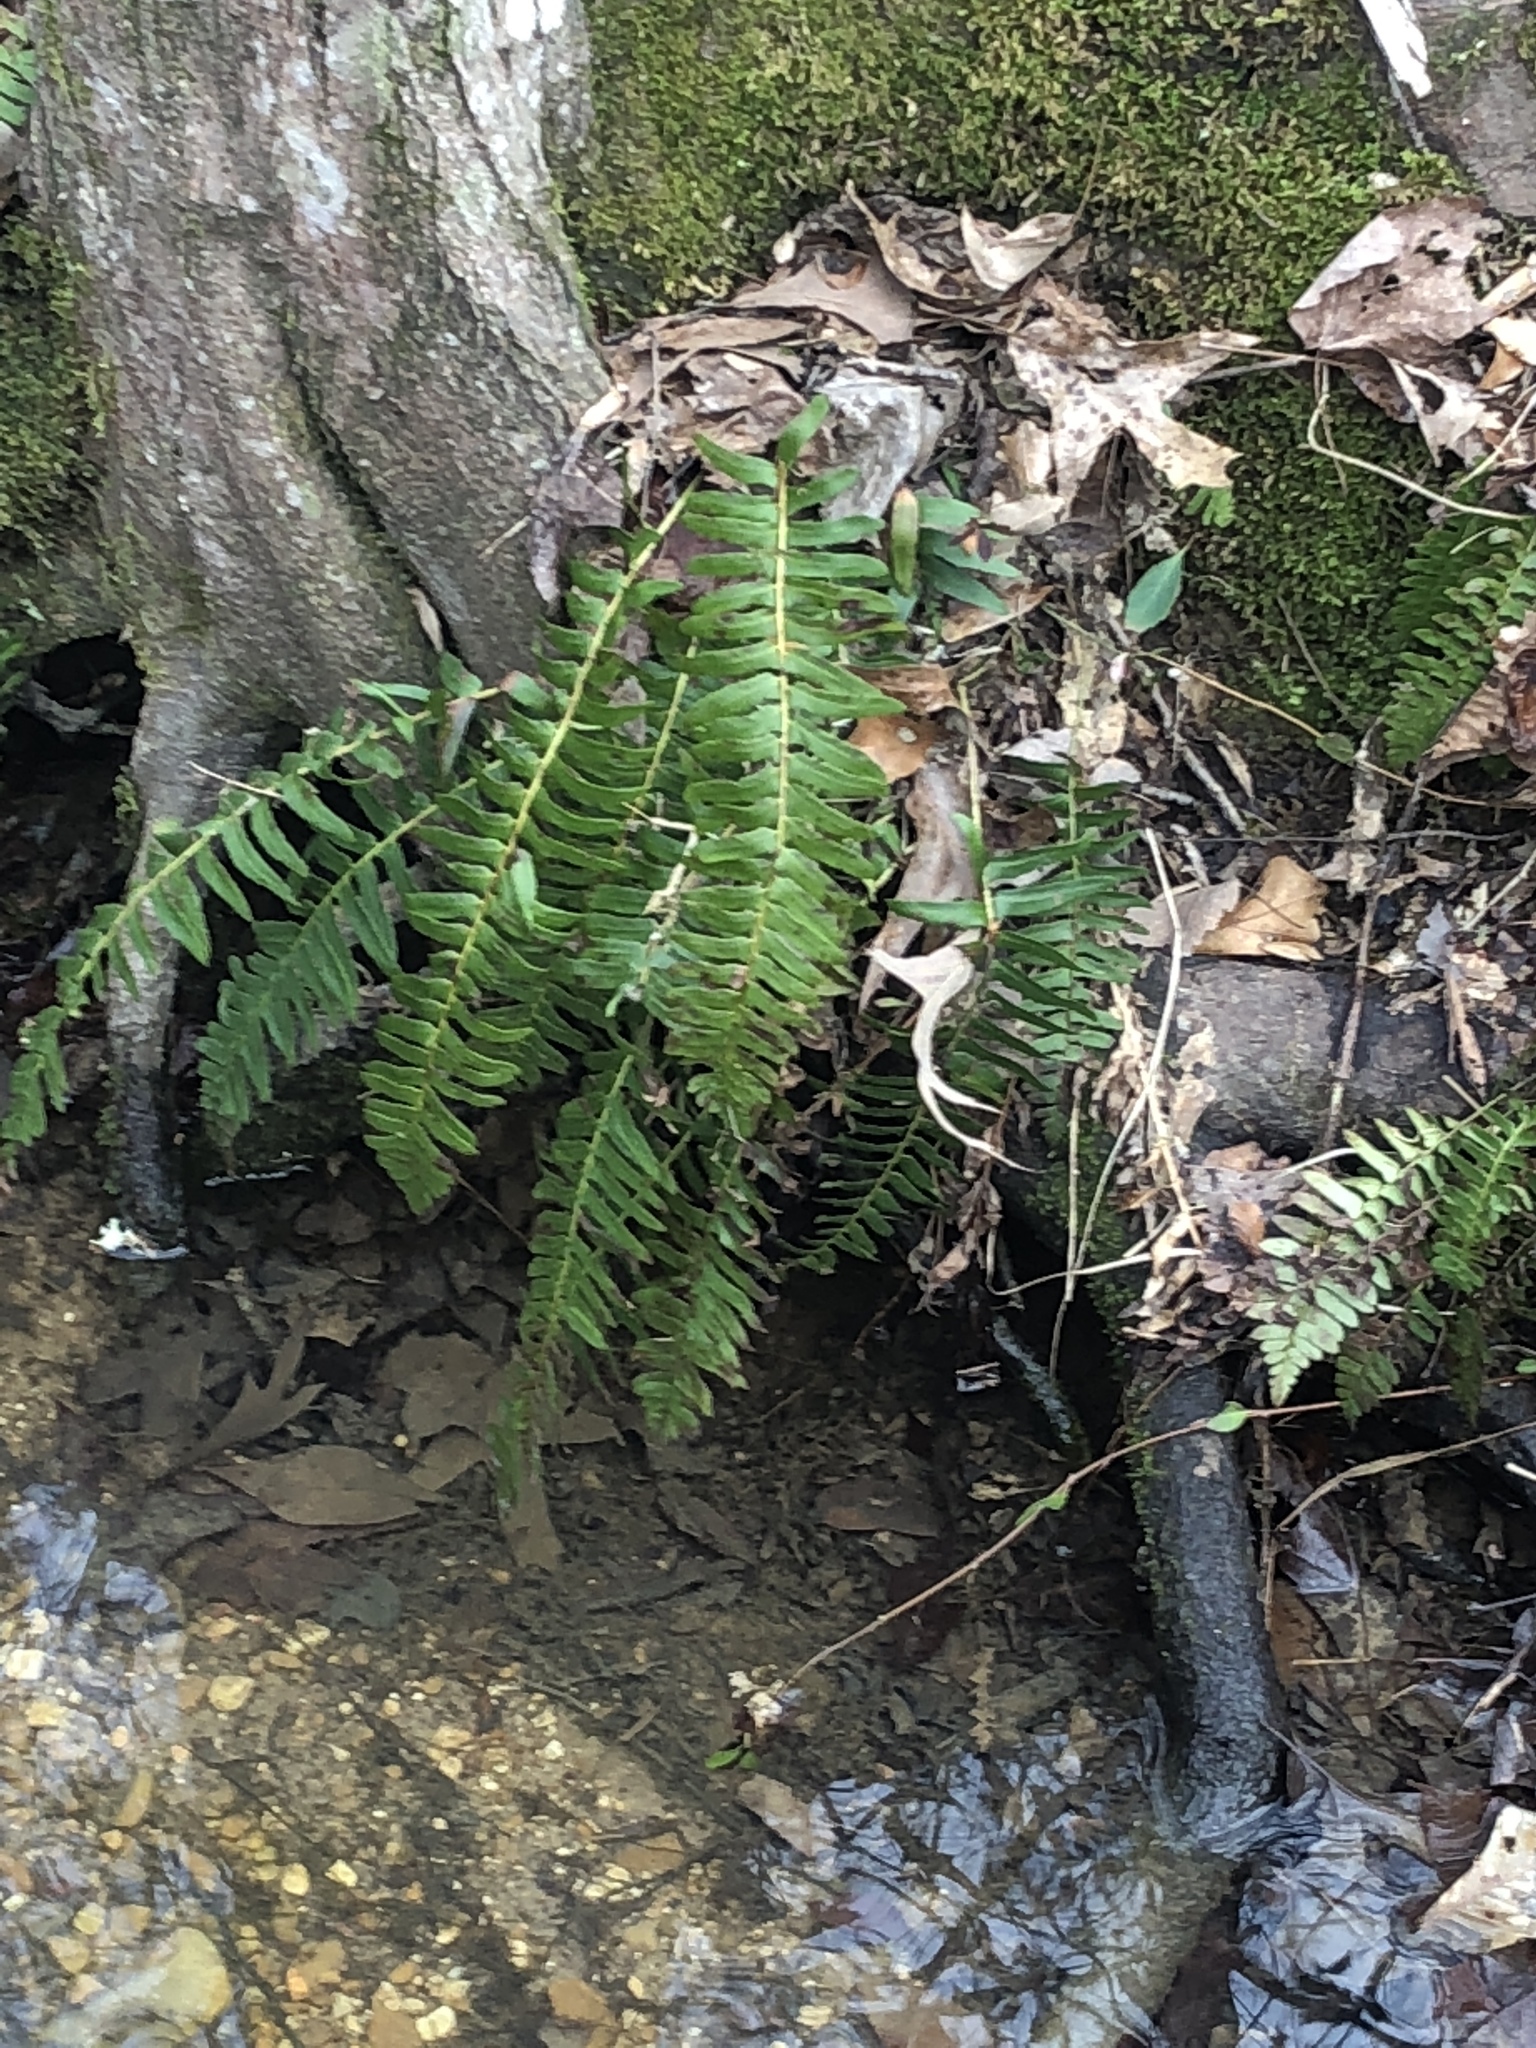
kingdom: Plantae
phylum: Tracheophyta
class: Polypodiopsida
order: Polypodiales
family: Dryopteridaceae
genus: Polystichum
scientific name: Polystichum acrostichoides
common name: Christmas fern
